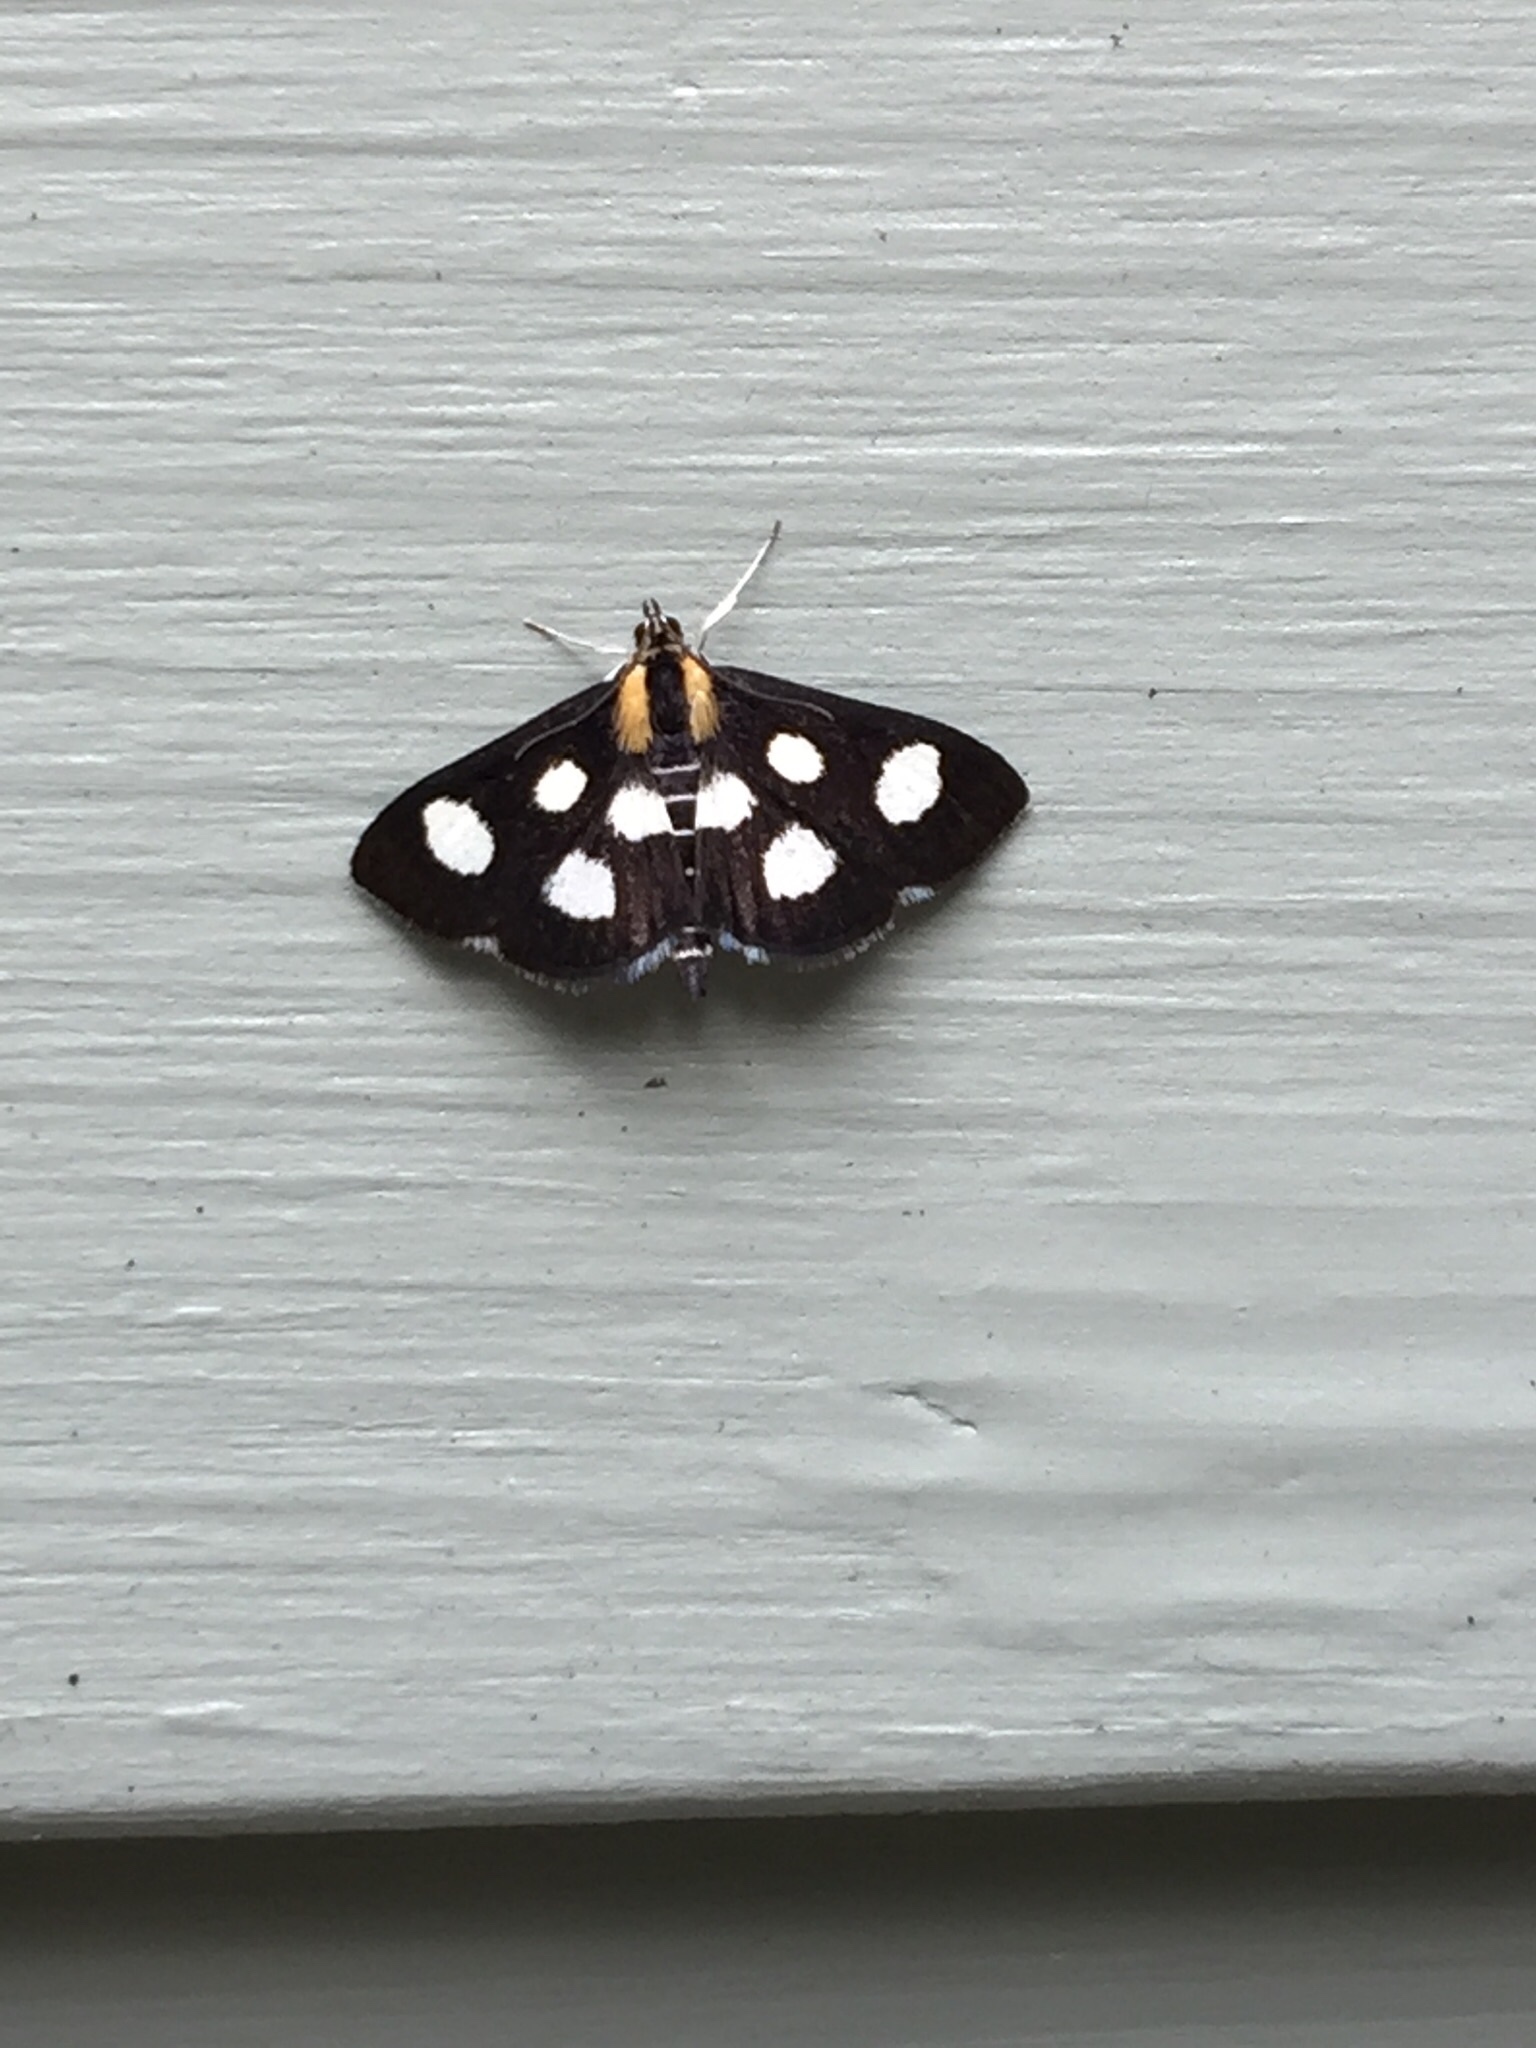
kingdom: Animalia
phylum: Arthropoda
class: Insecta
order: Lepidoptera
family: Crambidae
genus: Anania
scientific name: Anania funebris
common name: White-spotted sable moth
